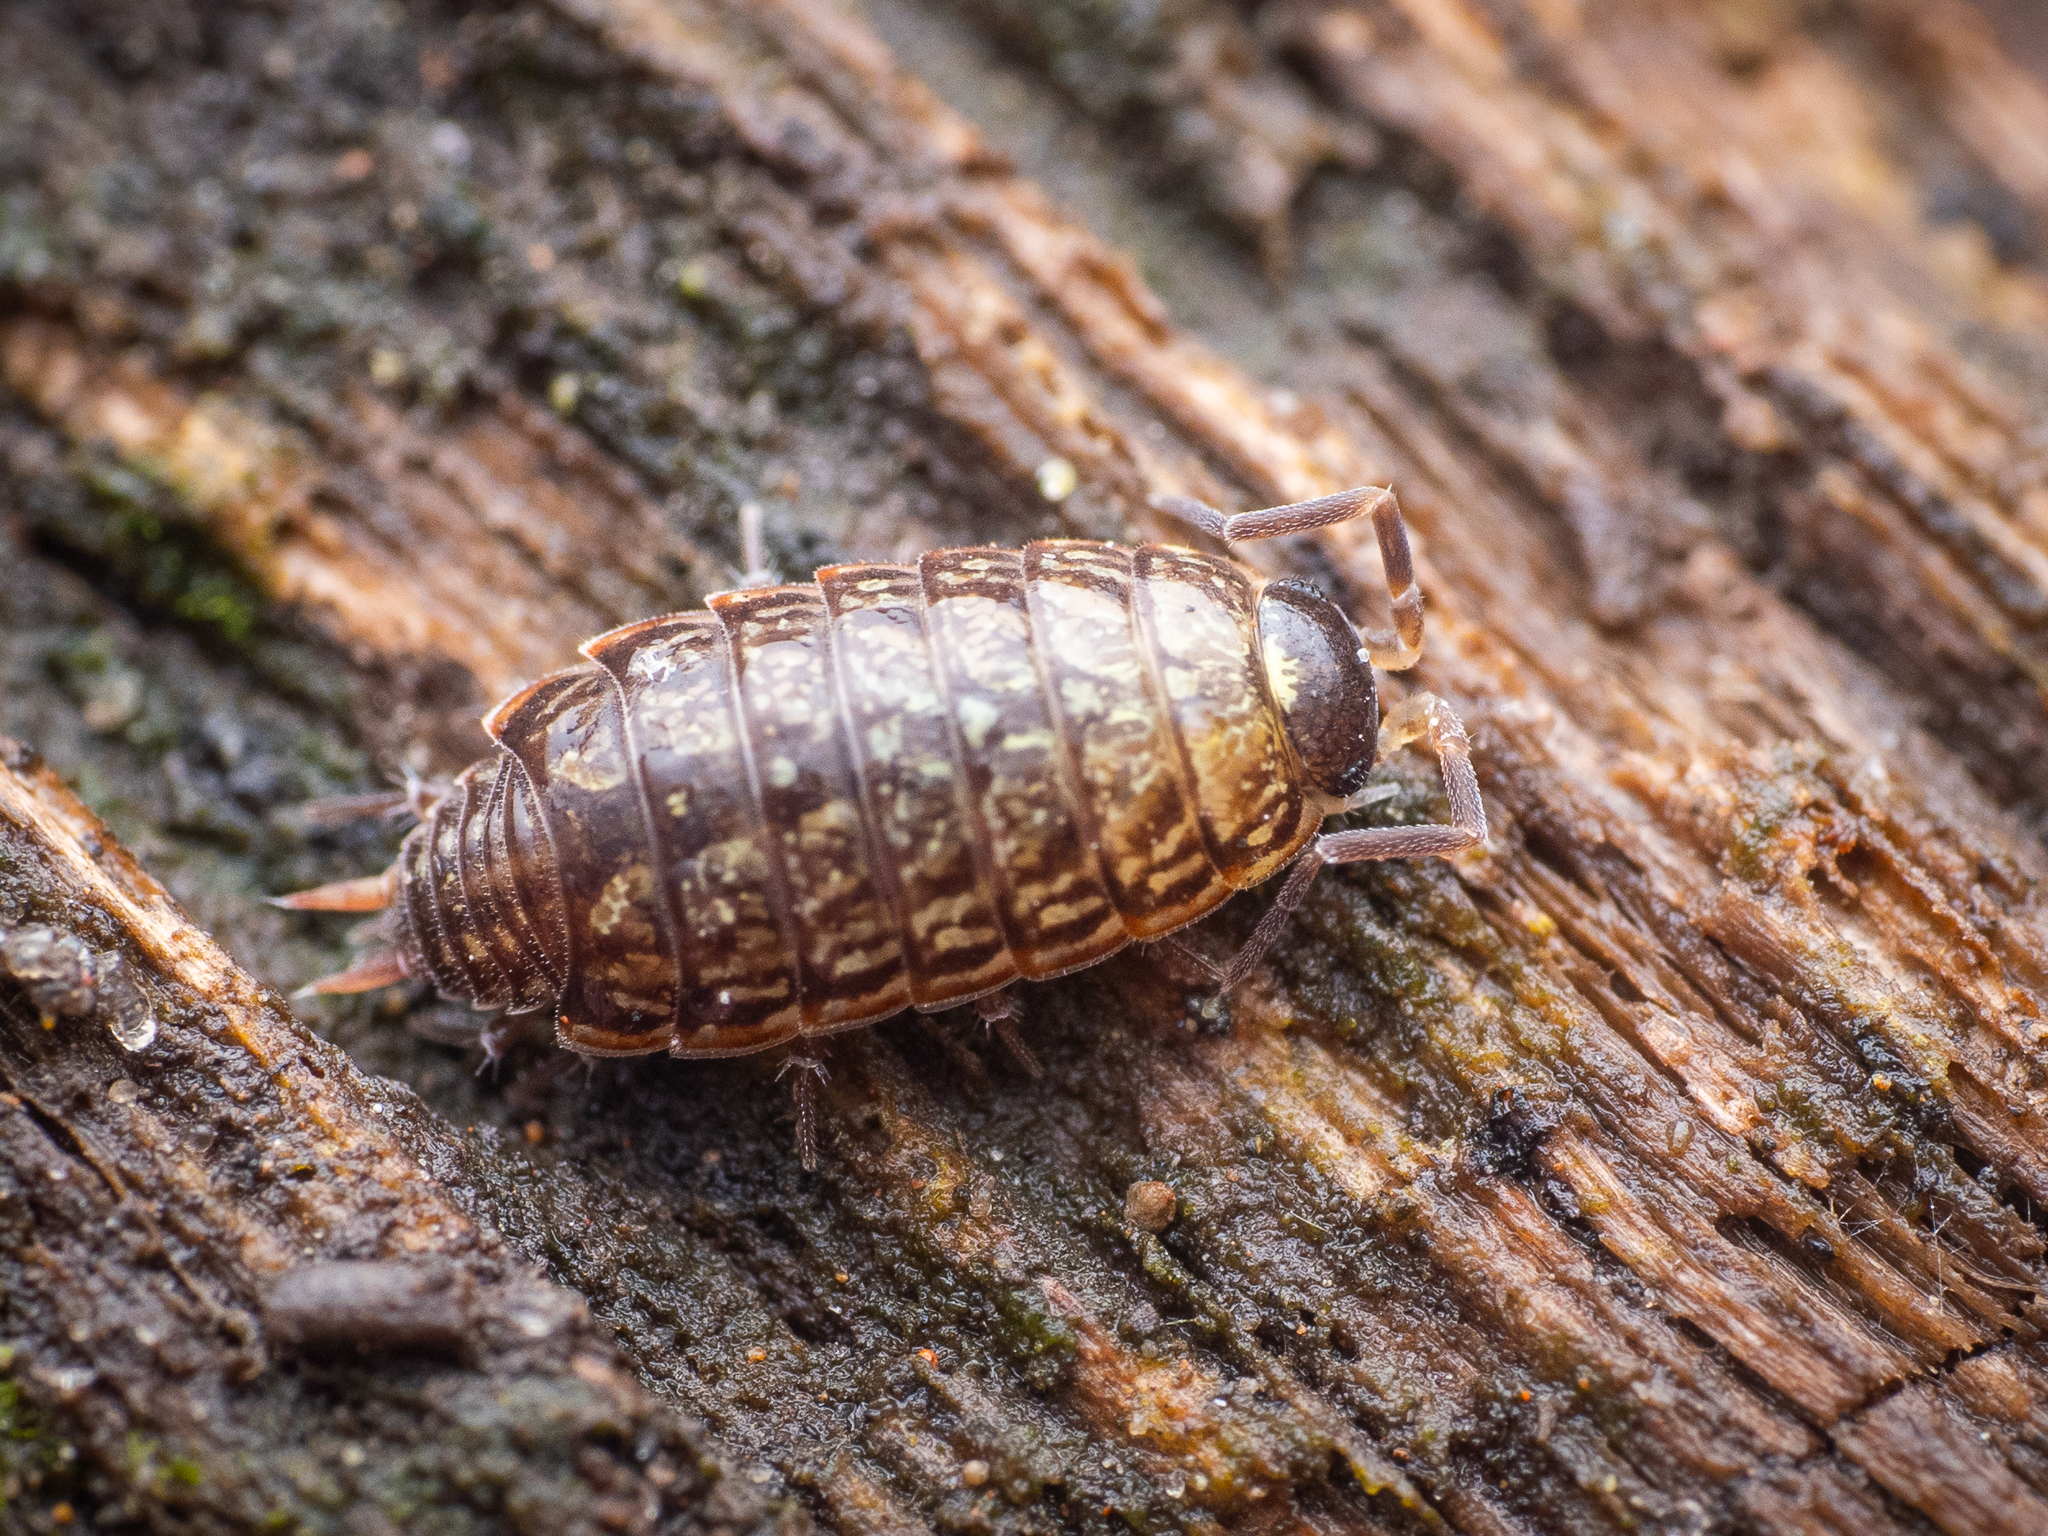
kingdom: Animalia
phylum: Arthropoda
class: Malacostraca
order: Isopoda
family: Philosciidae
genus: Philoscia
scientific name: Philoscia muscorum
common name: Common striped woodlouse
